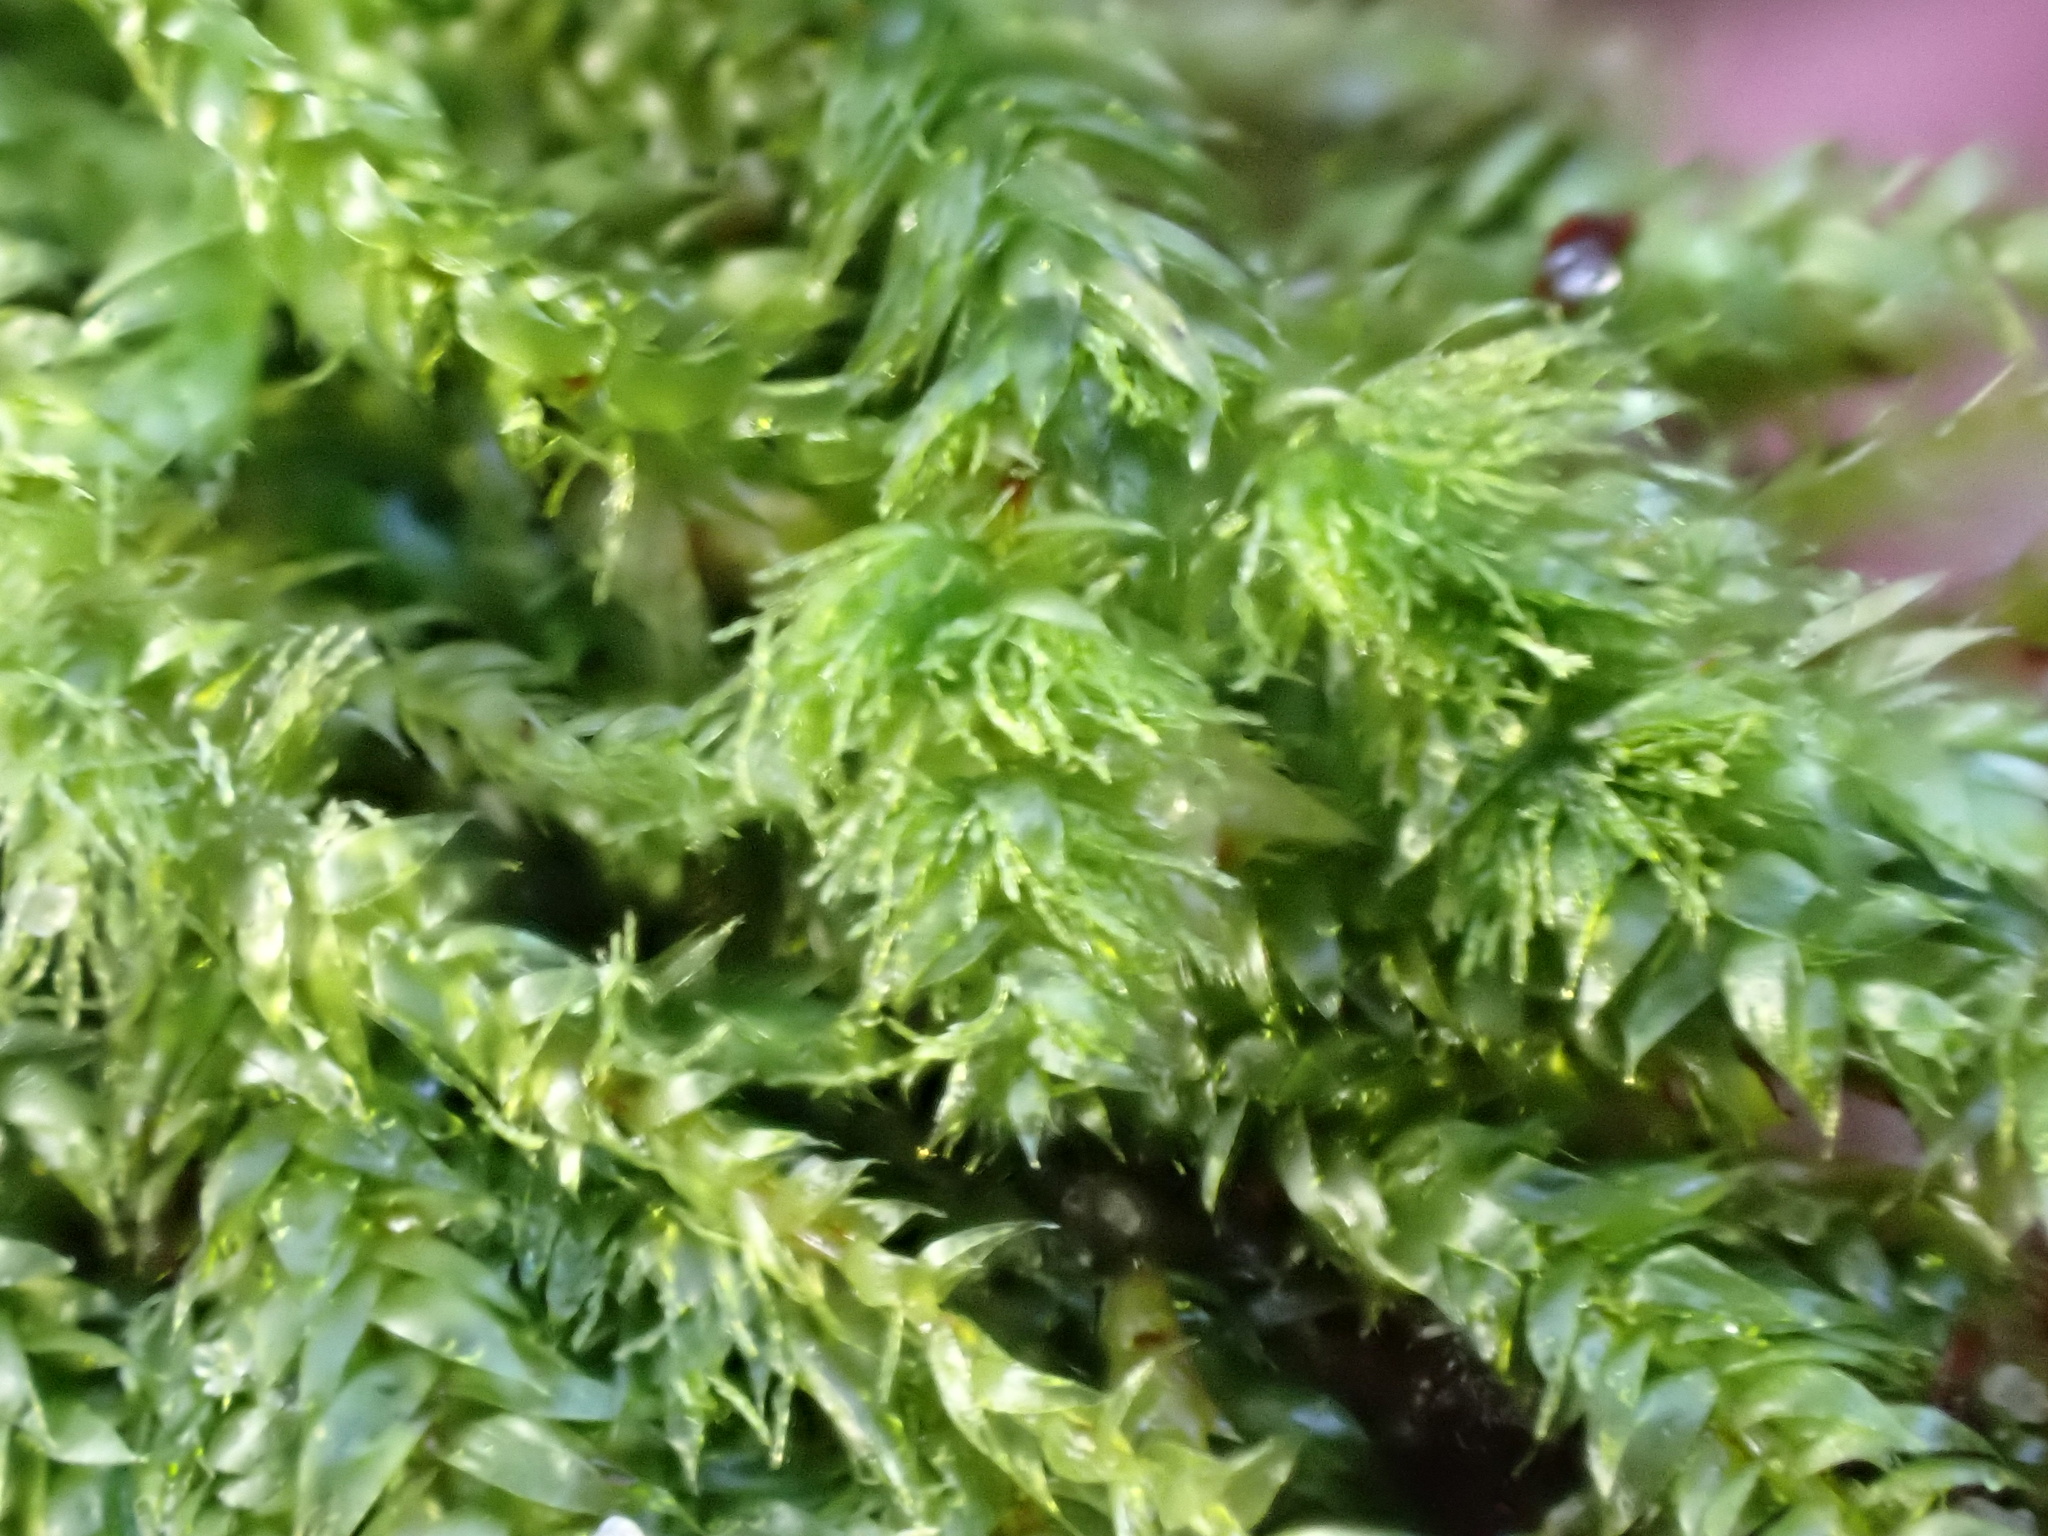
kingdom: Plantae
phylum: Bryophyta
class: Bryopsida
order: Hypnales
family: Plagiotheciaceae
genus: Pseudotaxiphyllum
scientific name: Pseudotaxiphyllum elegans
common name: Elegant silk moss
